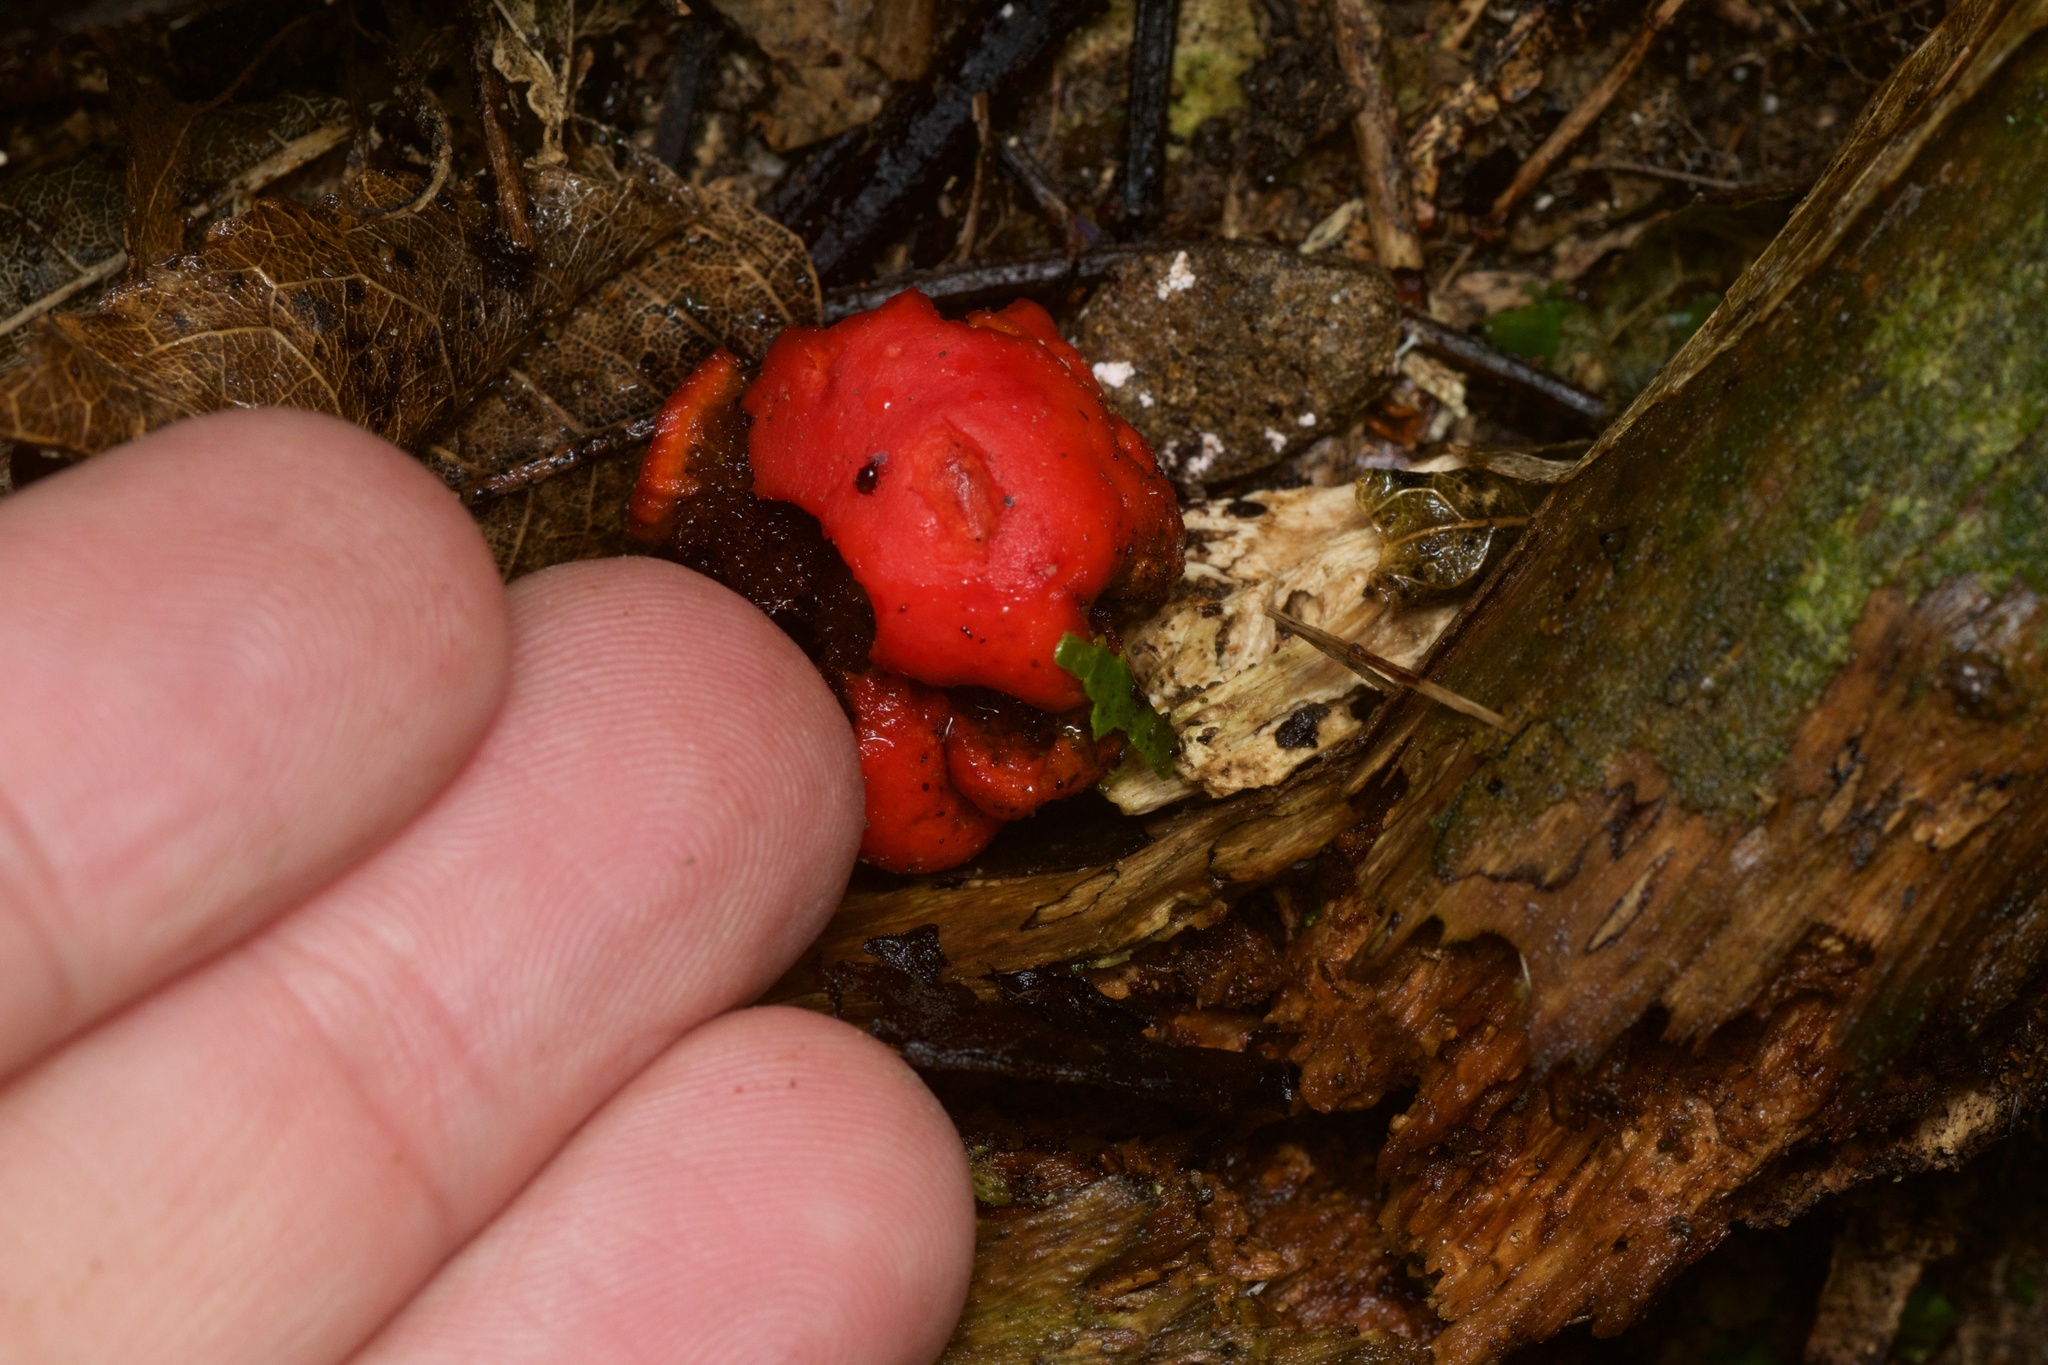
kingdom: Fungi
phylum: Basidiomycota
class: Agaricomycetes
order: Agaricales
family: Strophariaceae
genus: Leratiomyces
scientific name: Leratiomyces erythrocephalus
